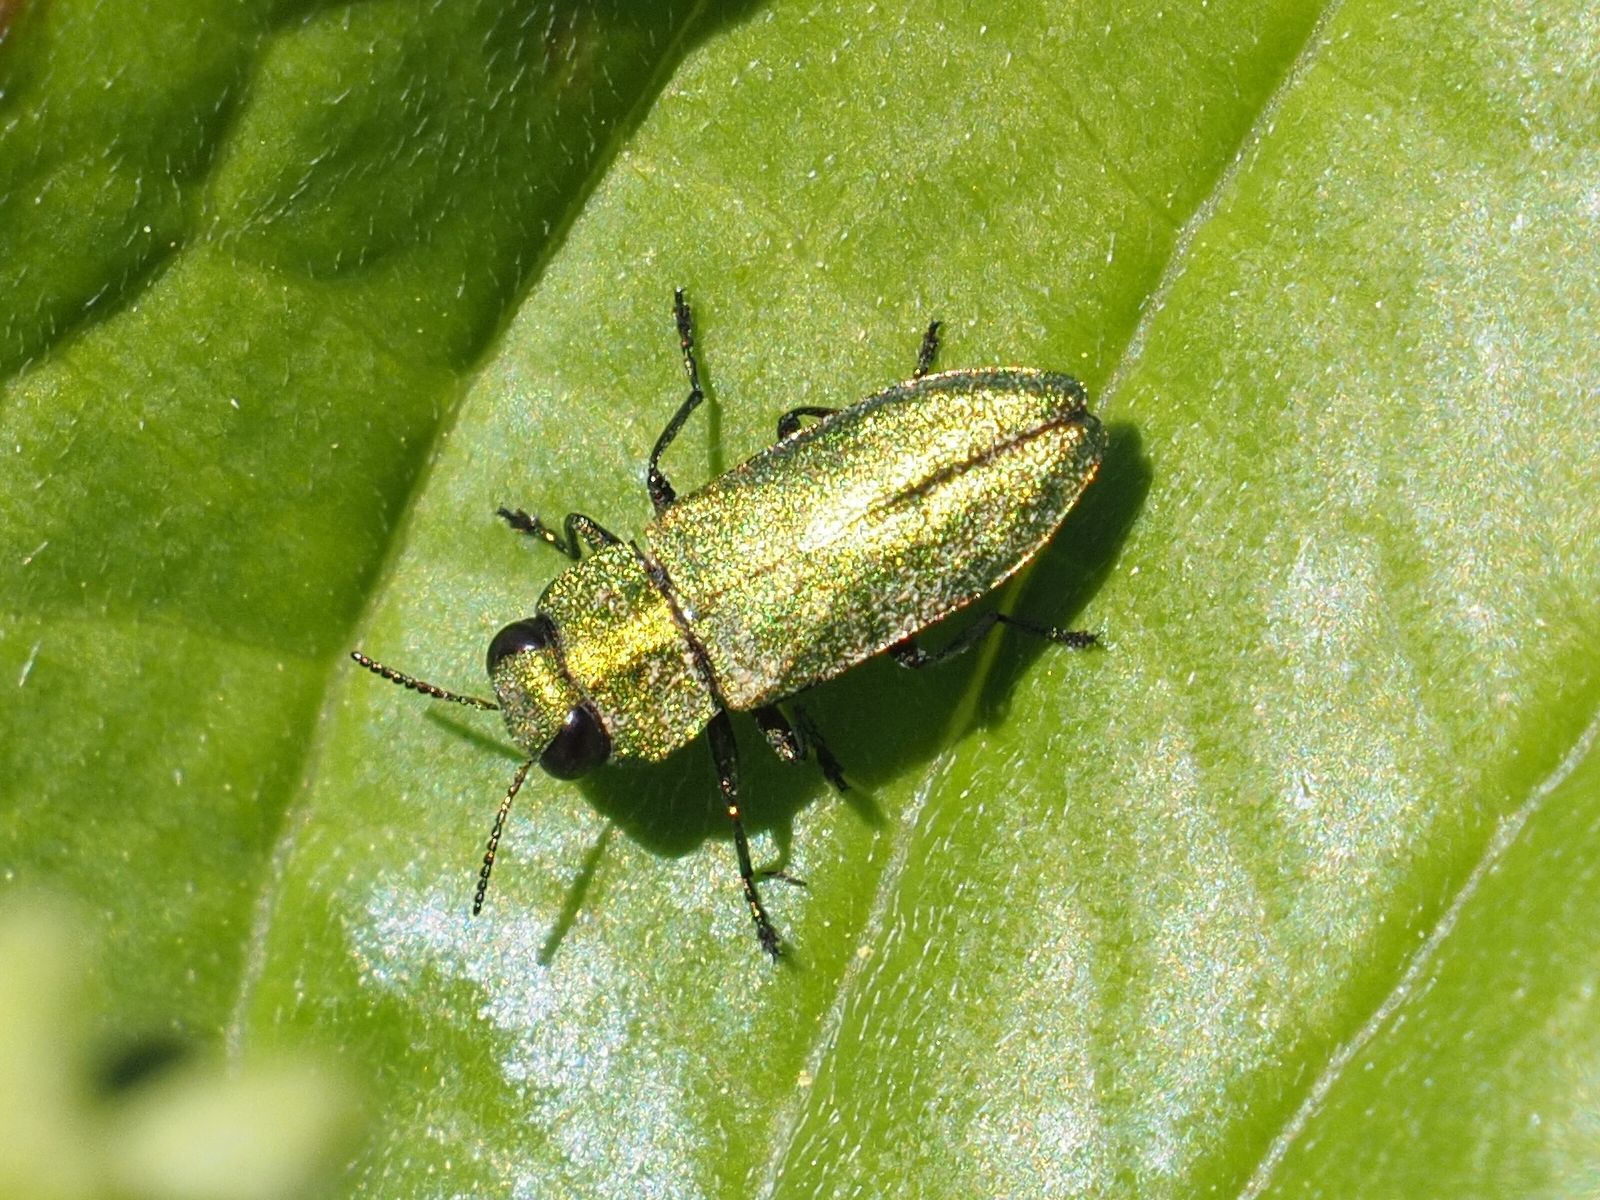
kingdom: Animalia
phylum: Arthropoda
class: Insecta
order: Coleoptera
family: Buprestidae
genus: Anthaxia
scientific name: Anthaxia nitidula
